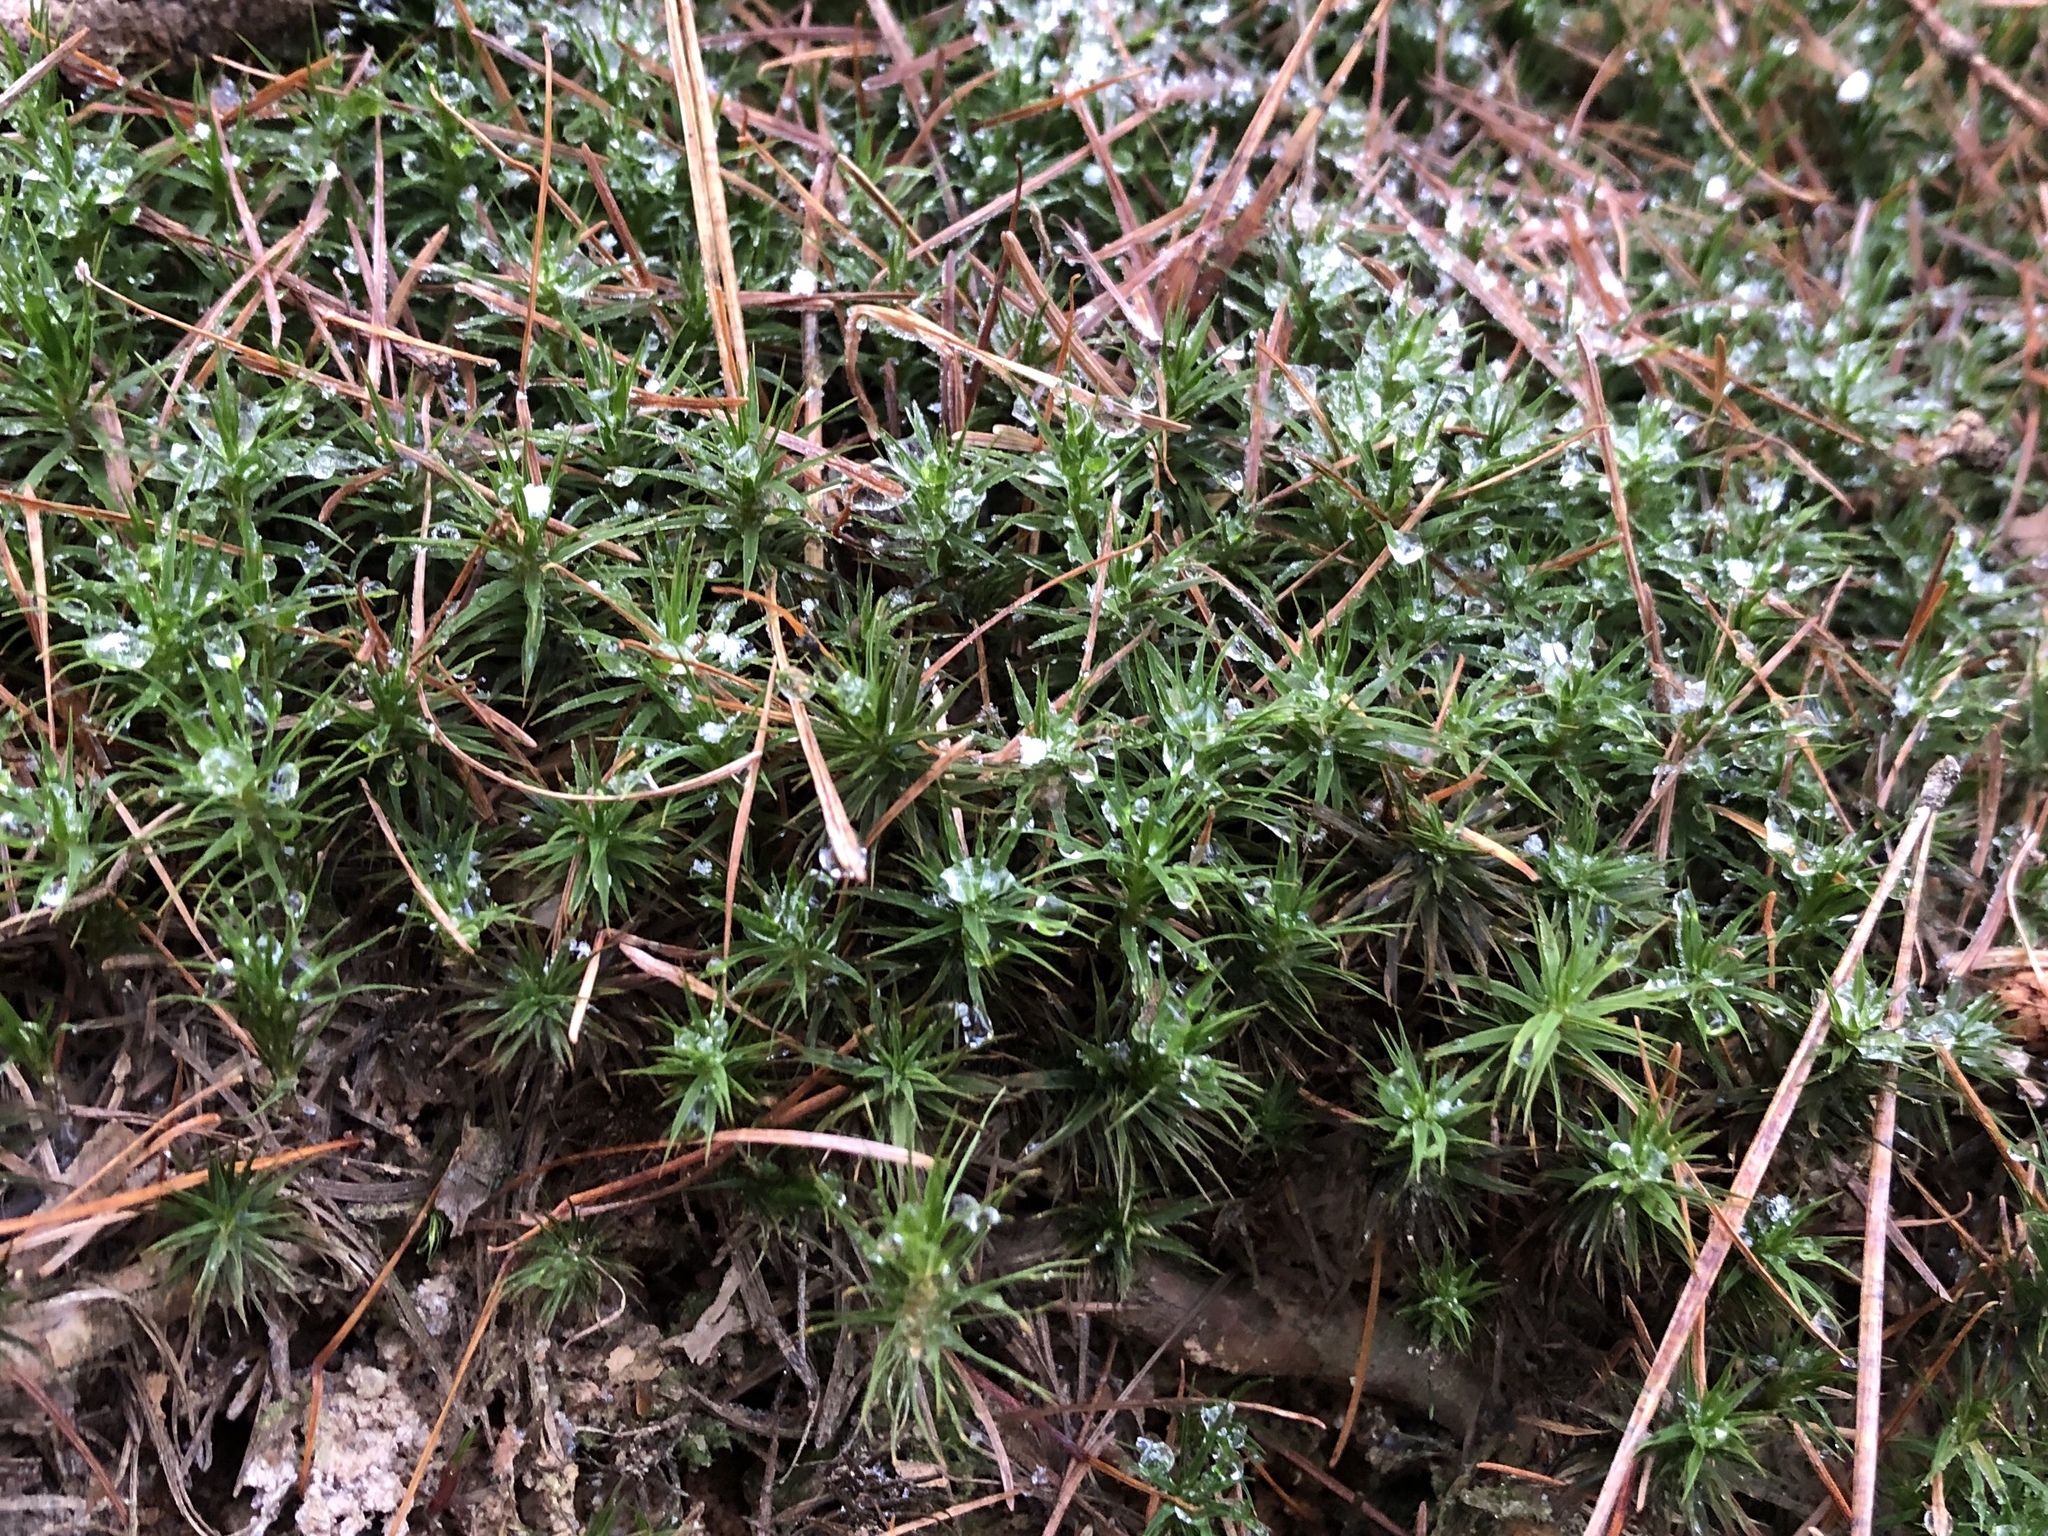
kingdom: Plantae
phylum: Bryophyta
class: Polytrichopsida
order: Polytrichales
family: Polytrichaceae
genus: Polytrichum
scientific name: Polytrichum formosum
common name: Bank haircap moss
